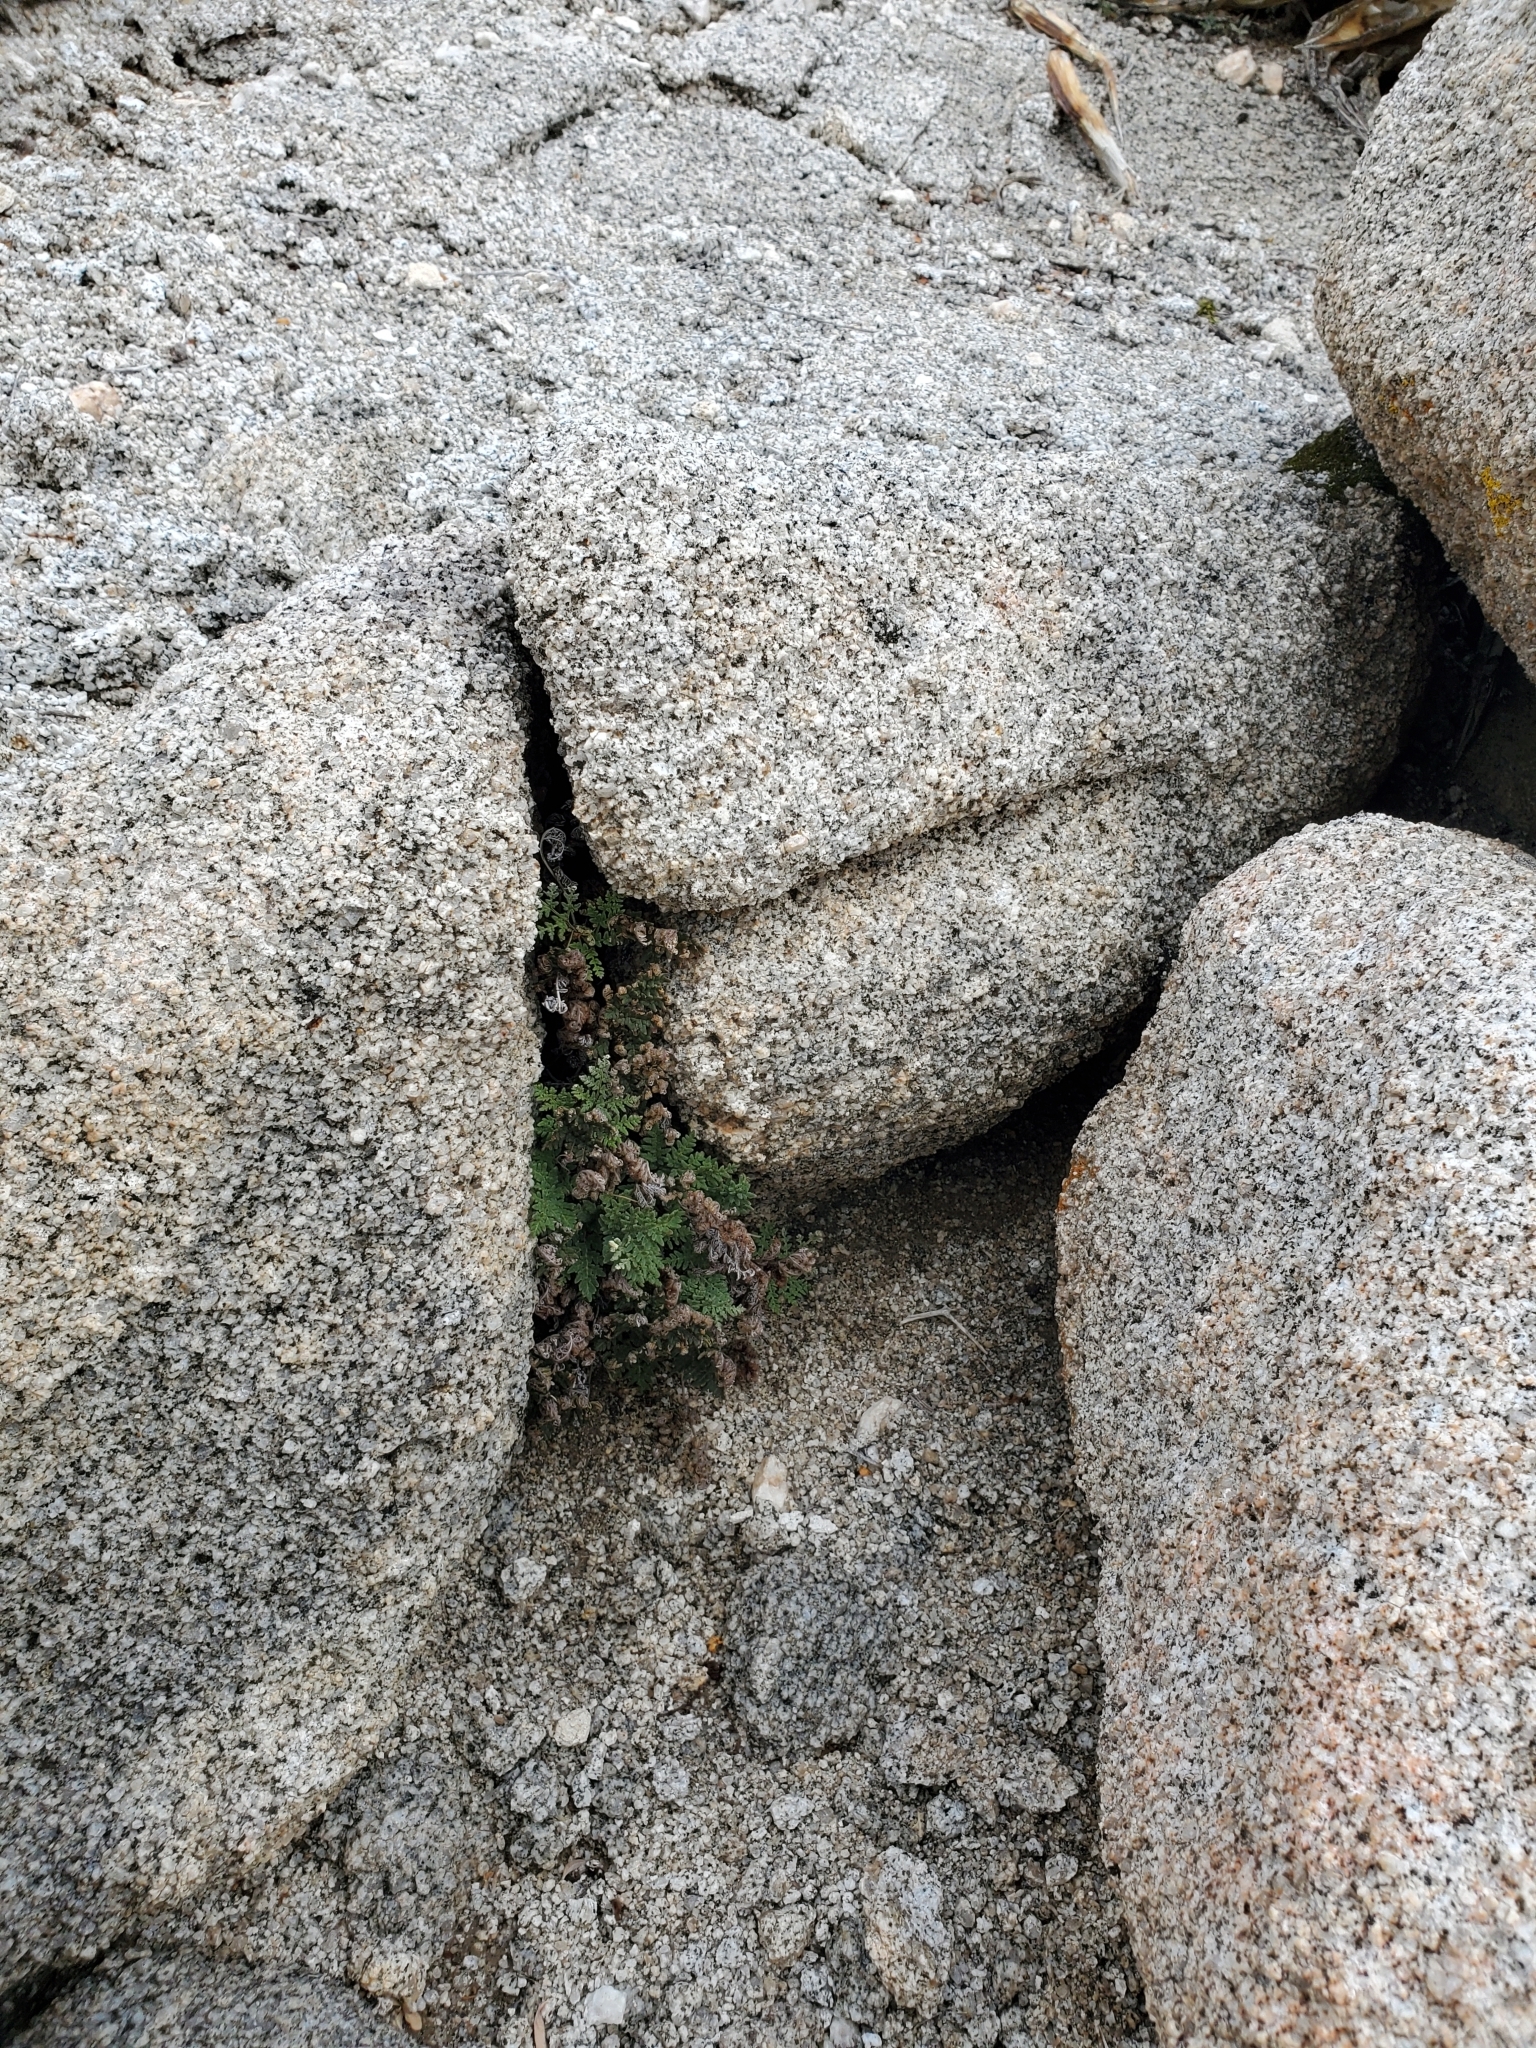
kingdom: Plantae
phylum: Tracheophyta
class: Polypodiopsida
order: Polypodiales
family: Pteridaceae
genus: Notholaena
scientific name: Notholaena californica
